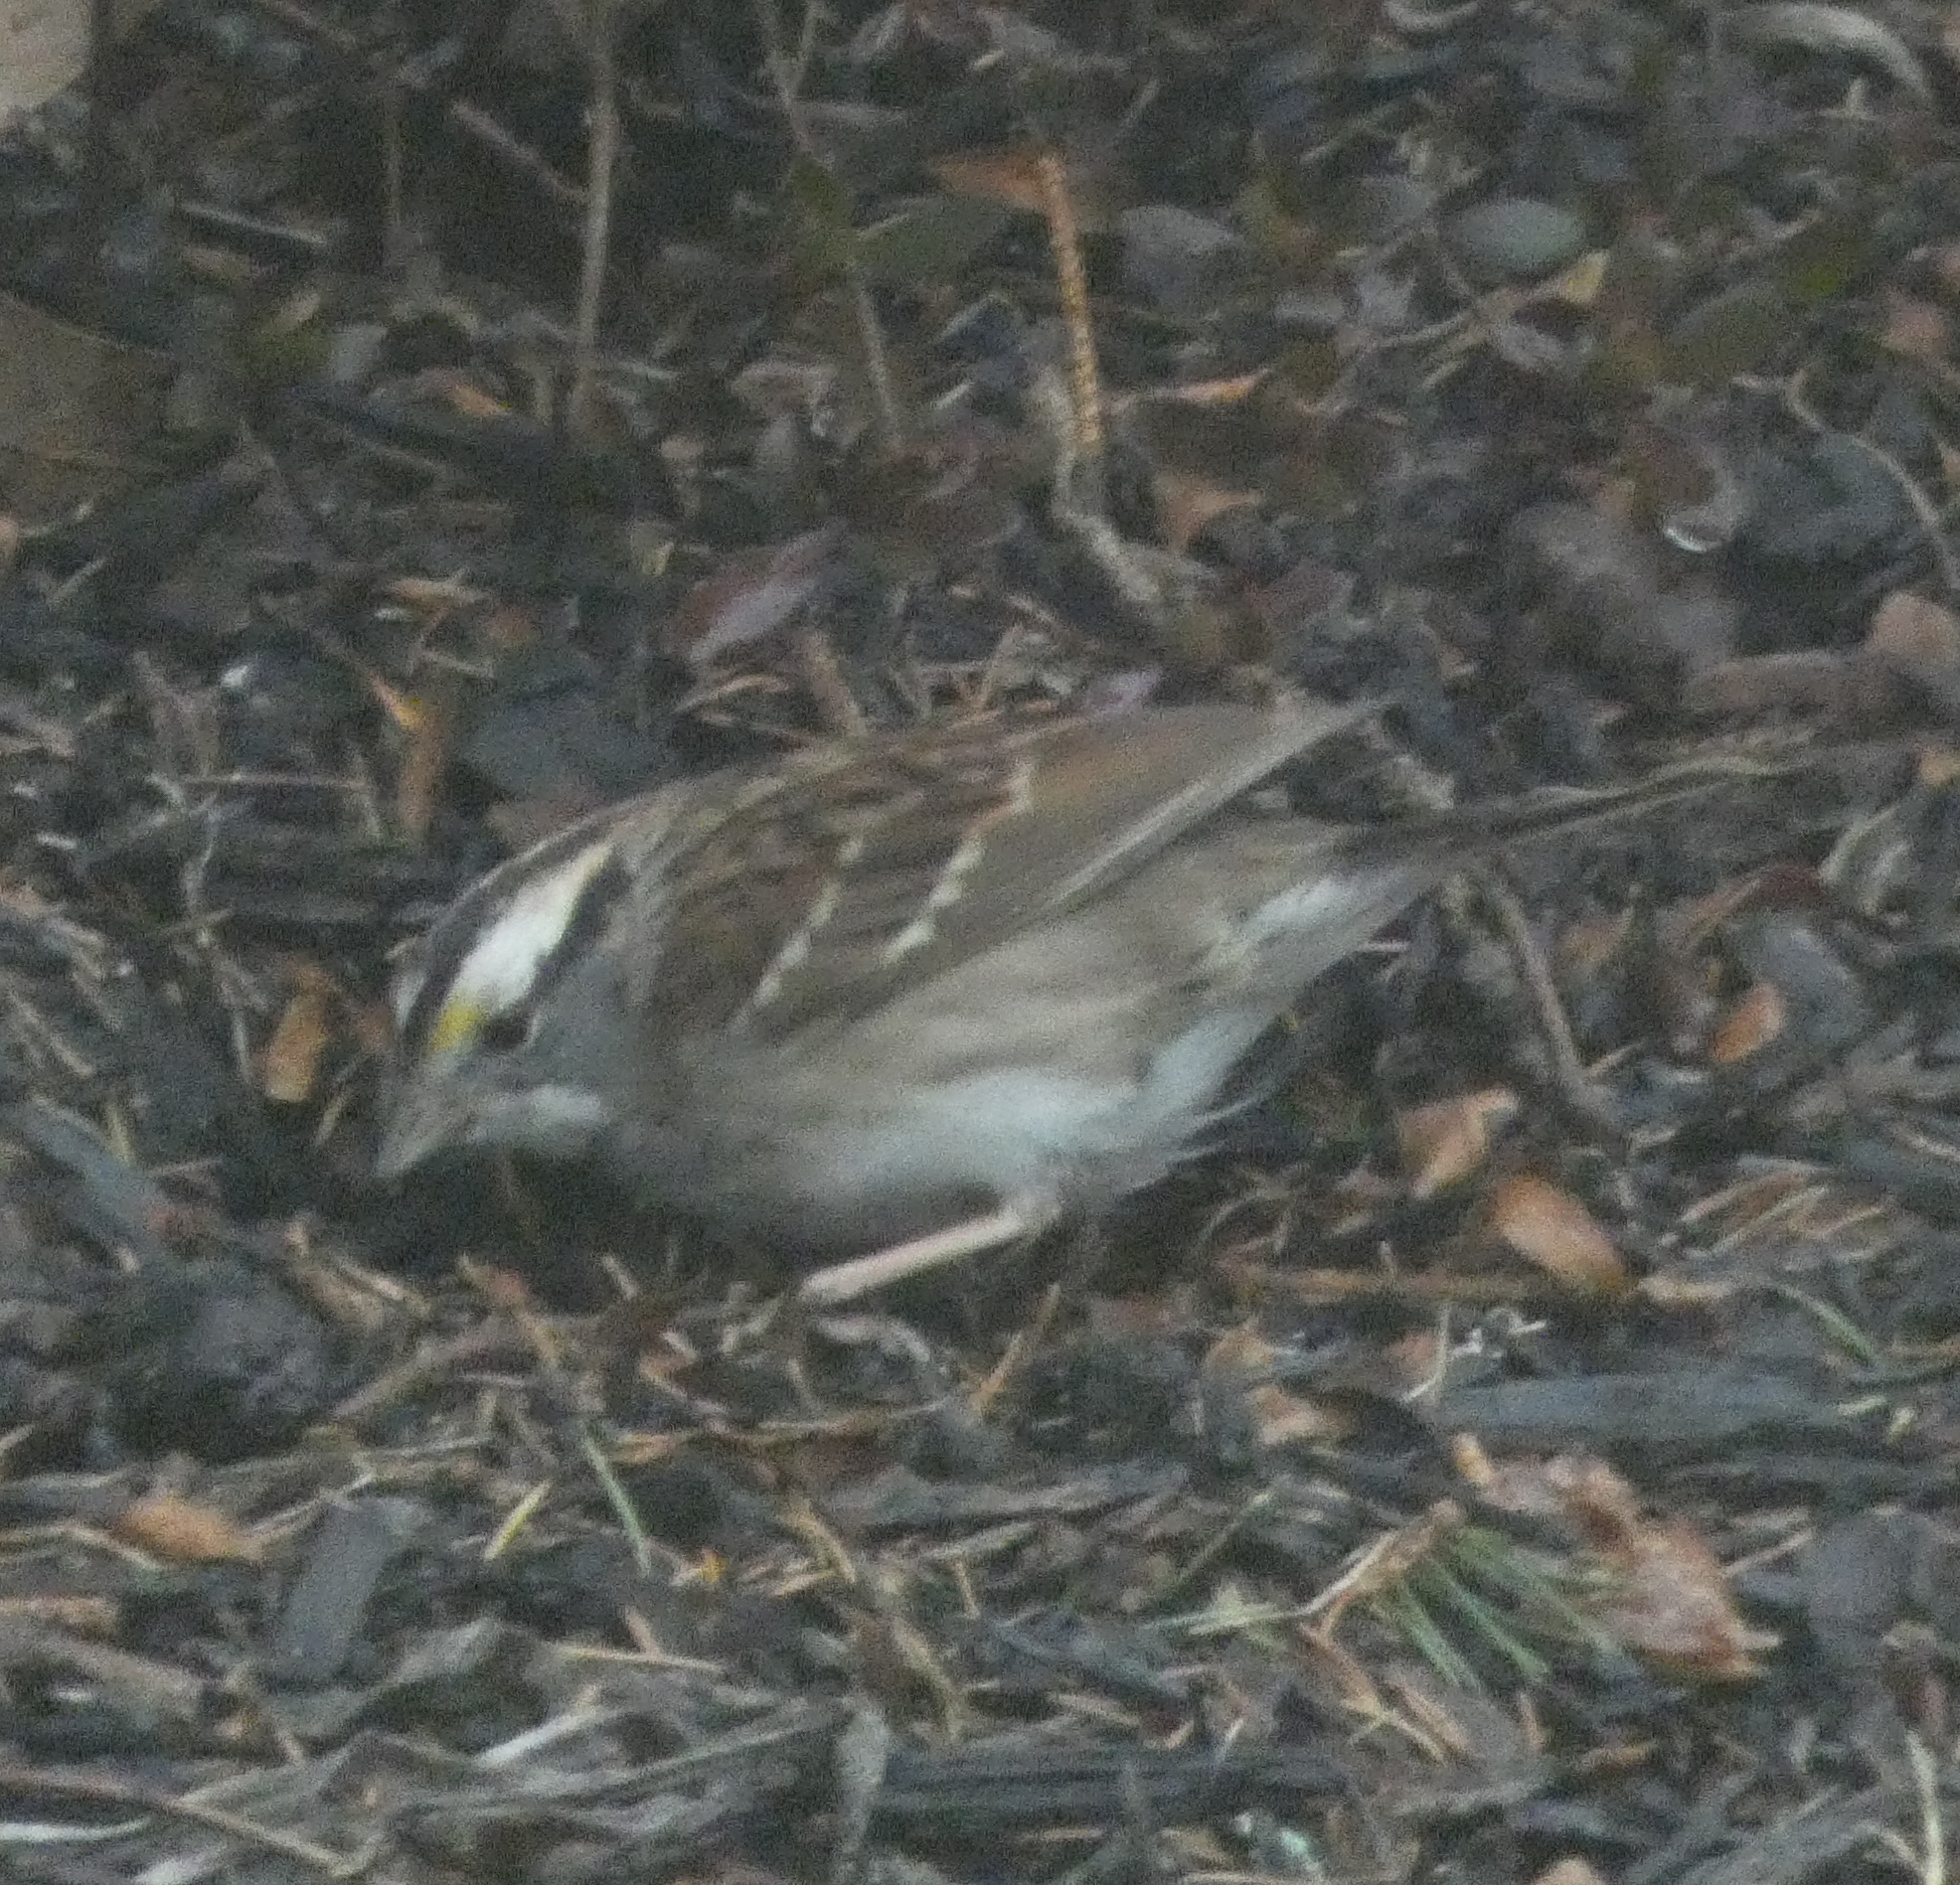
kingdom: Animalia
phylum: Chordata
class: Aves
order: Passeriformes
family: Passerellidae
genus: Zonotrichia
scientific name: Zonotrichia albicollis
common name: White-throated sparrow
